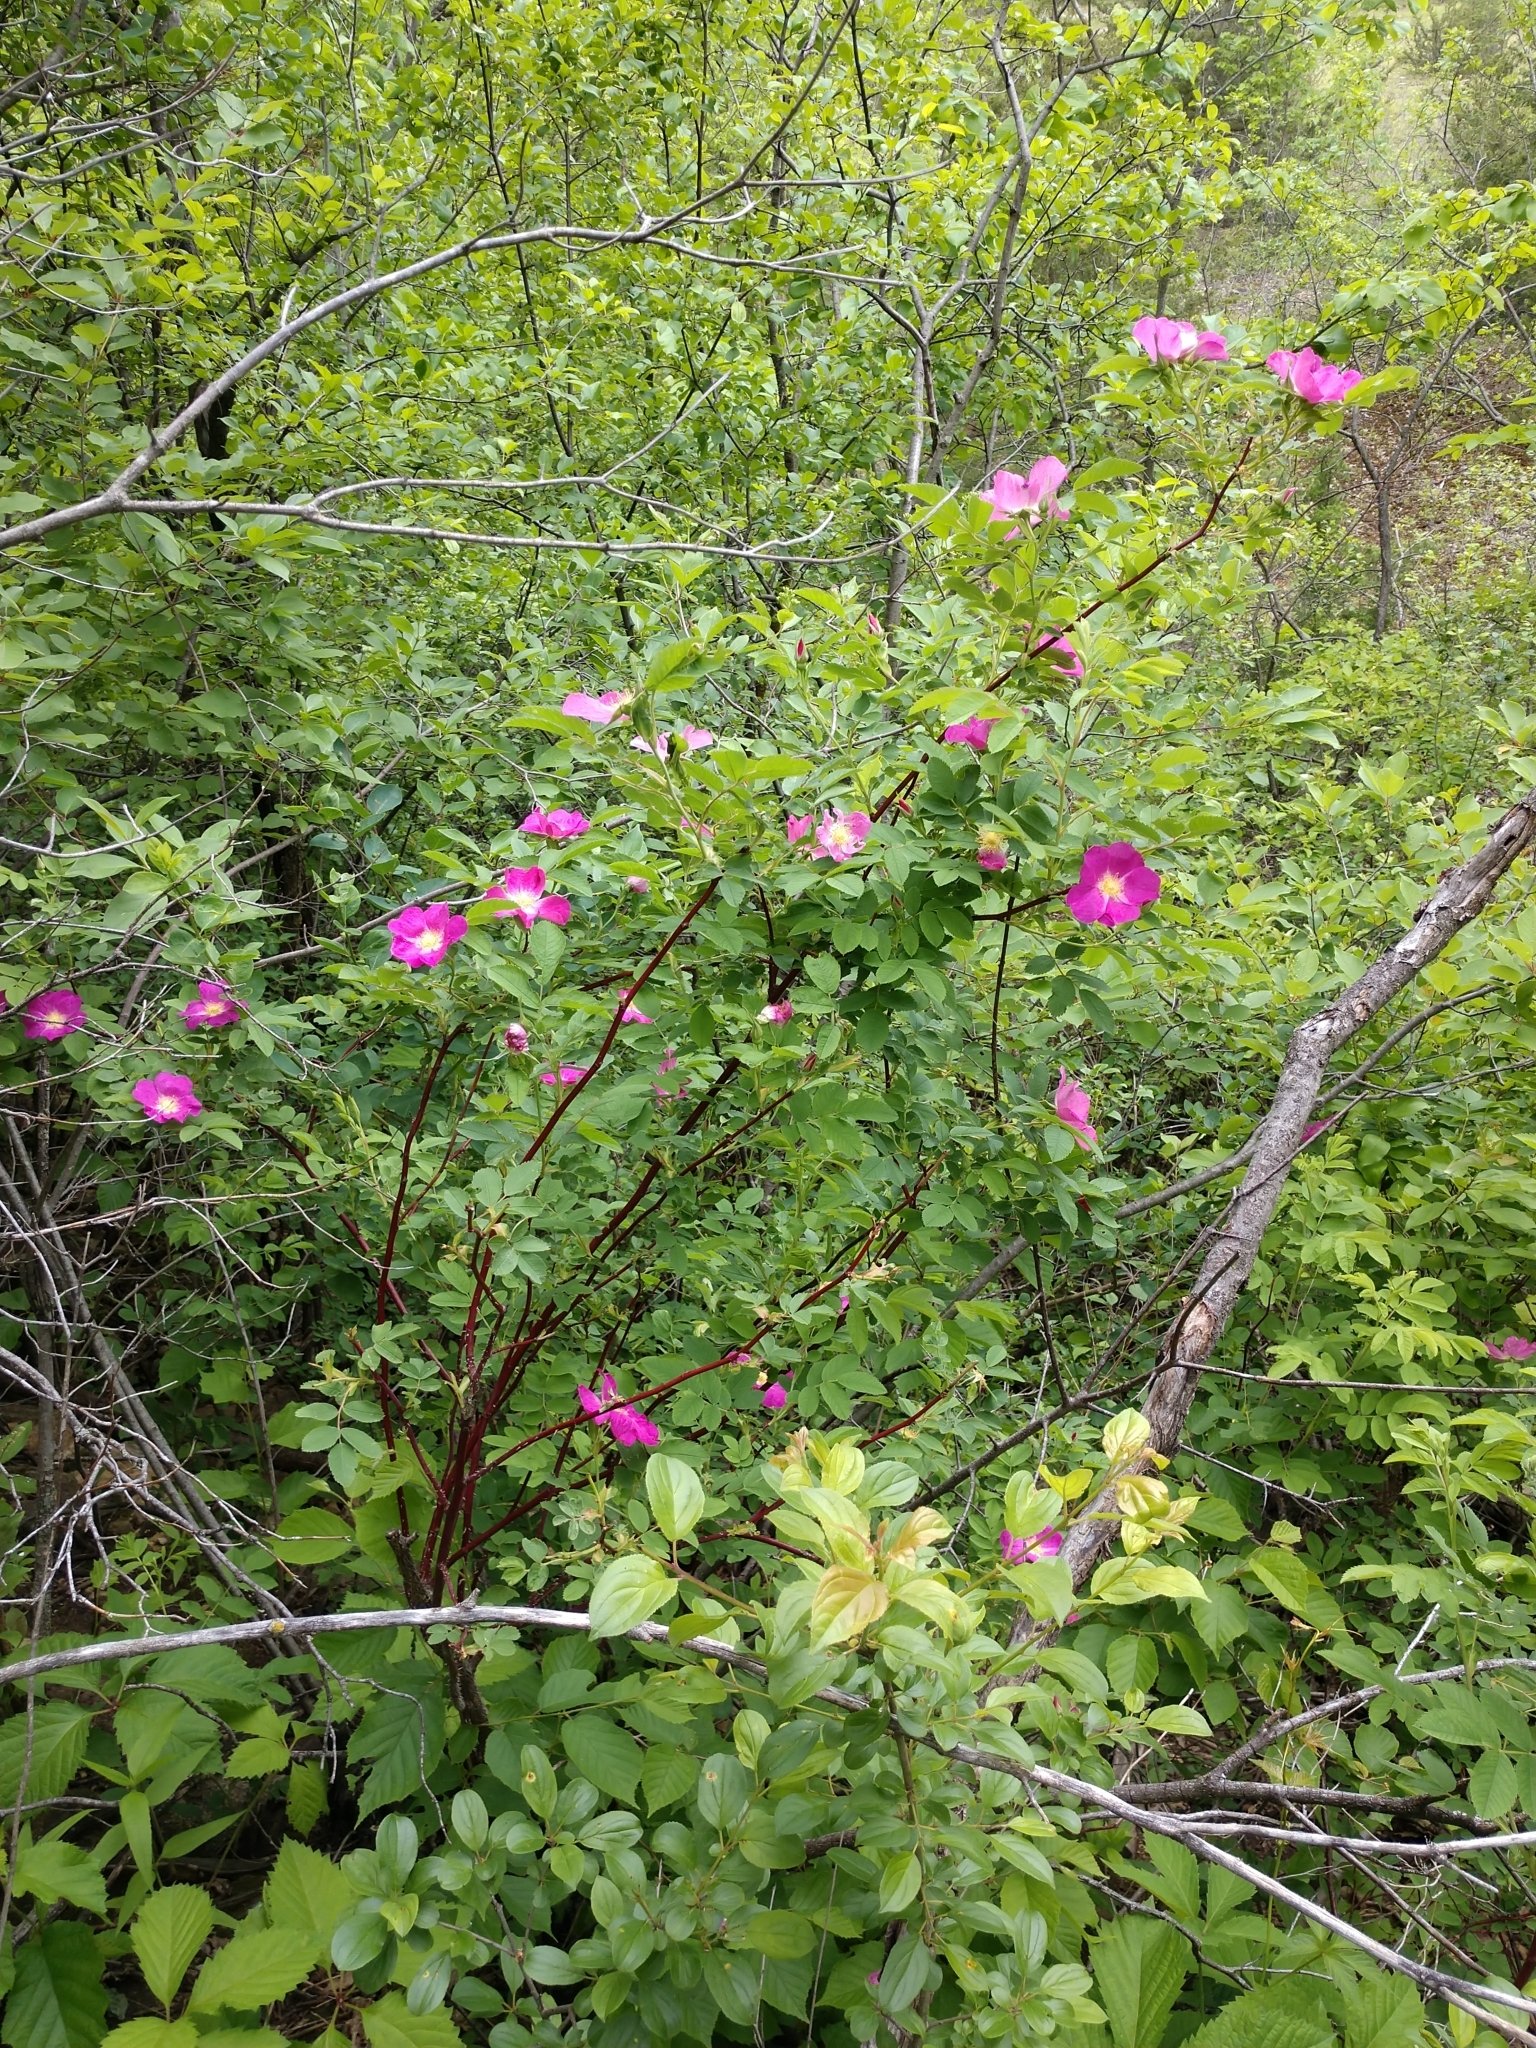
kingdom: Plantae
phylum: Tracheophyta
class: Magnoliopsida
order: Rosales
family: Rosaceae
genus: Rosa
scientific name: Rosa blanda
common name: Smooth rose
